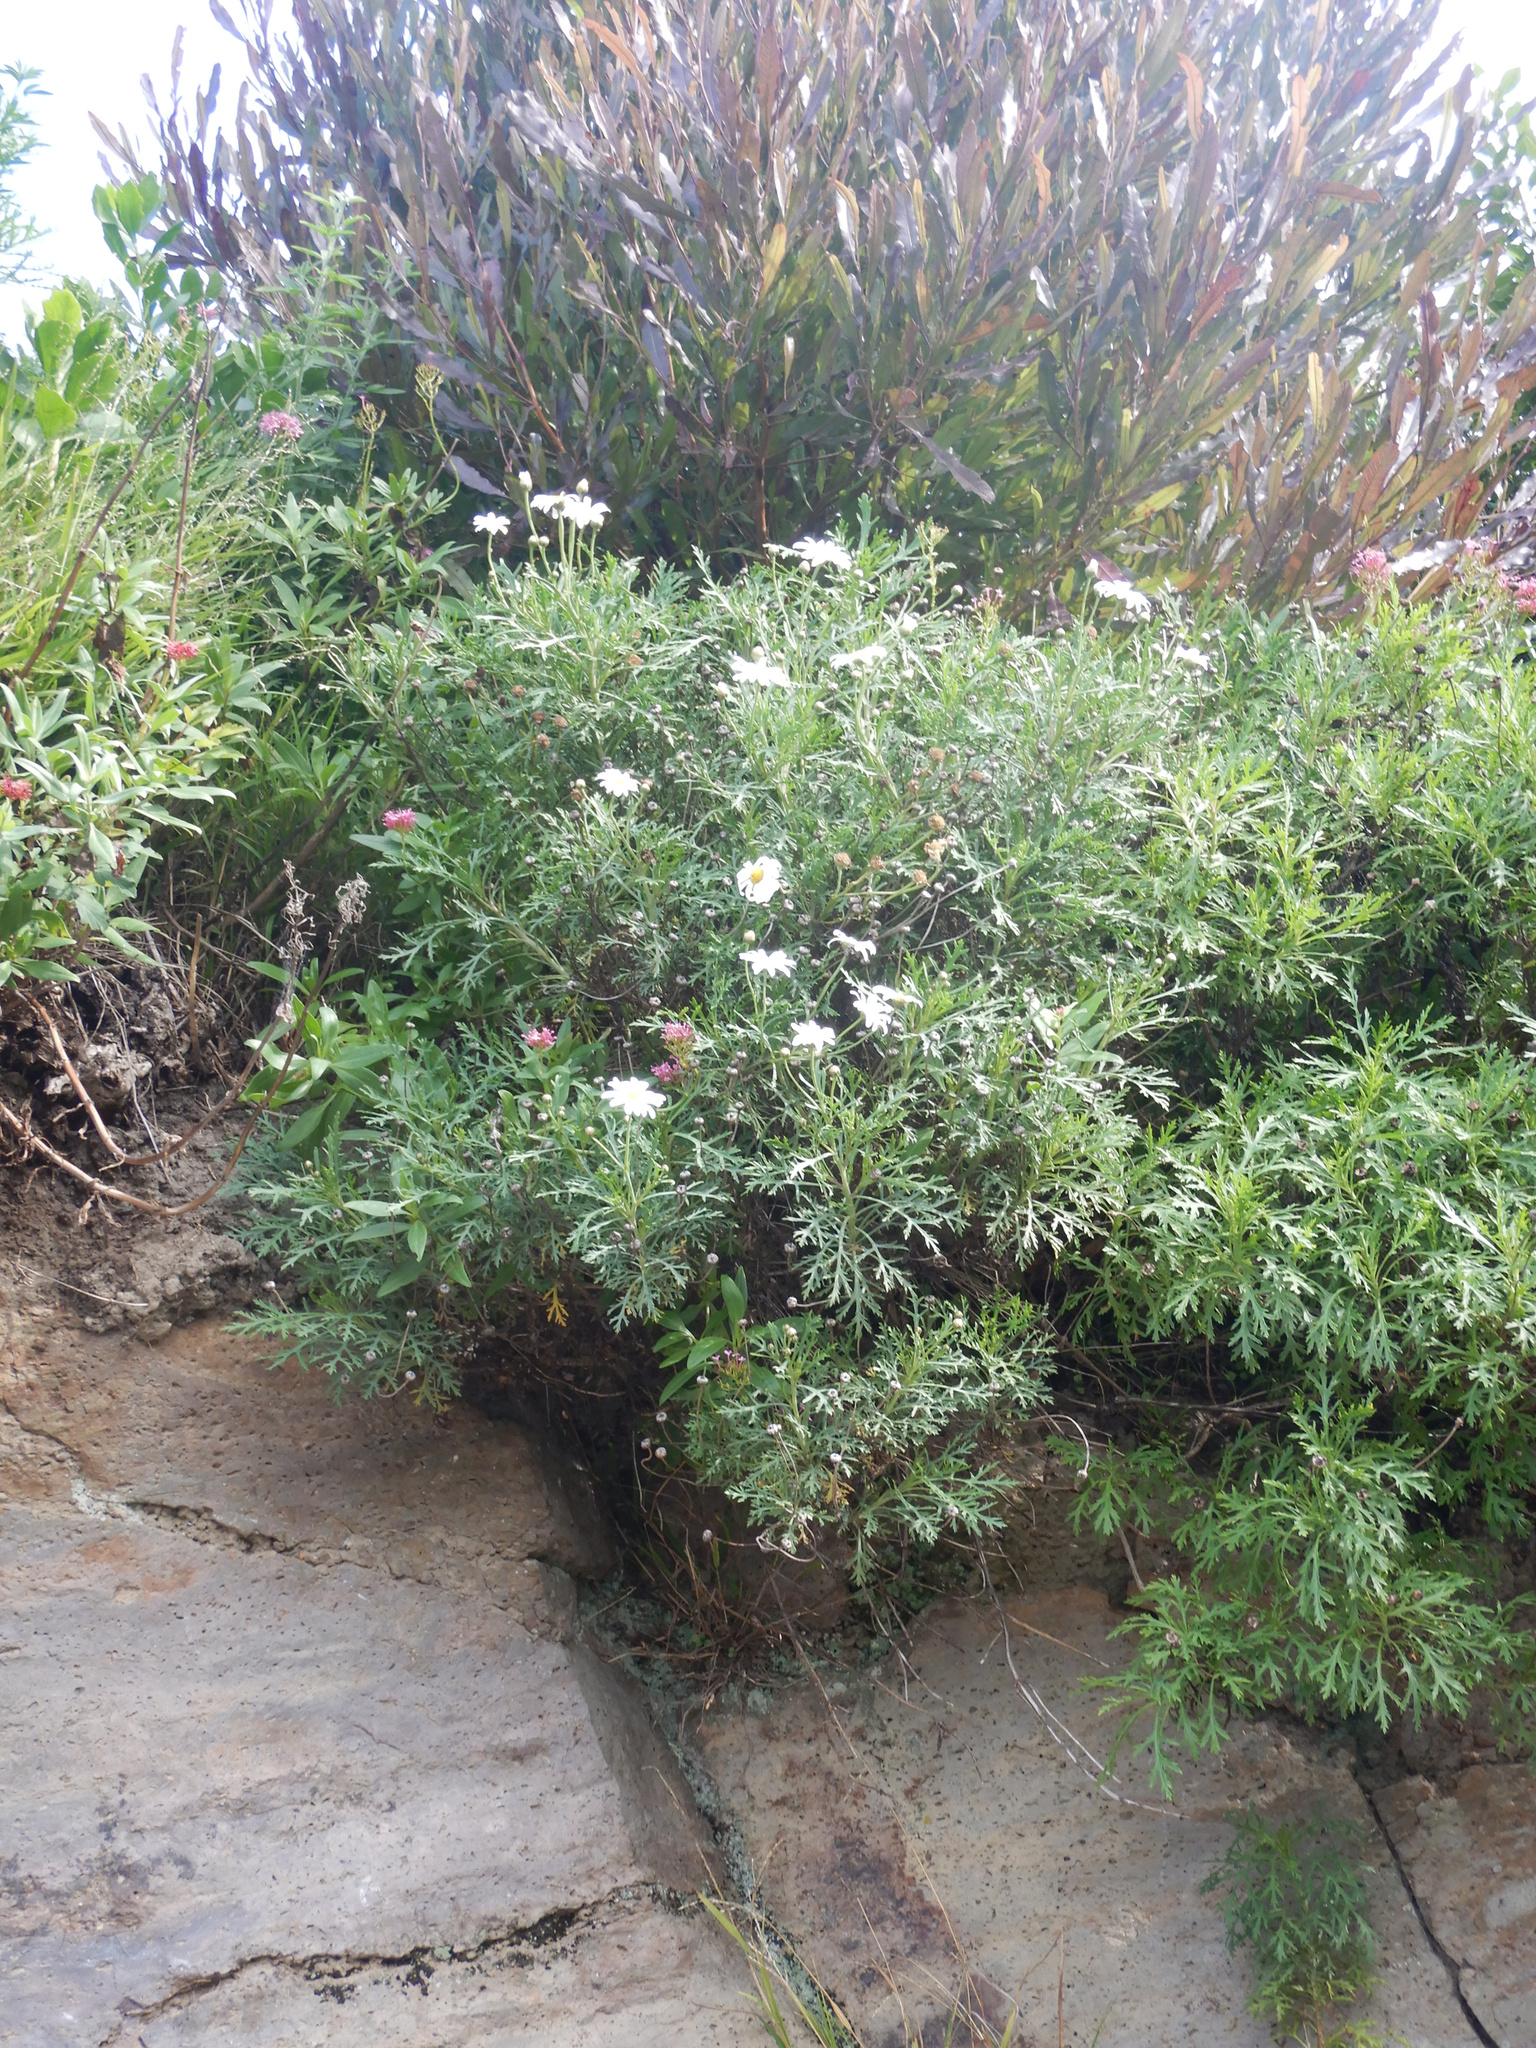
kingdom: Plantae
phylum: Tracheophyta
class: Magnoliopsida
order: Asterales
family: Asteraceae
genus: Argyranthemum
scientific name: Argyranthemum frutescens
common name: Paris daisy
